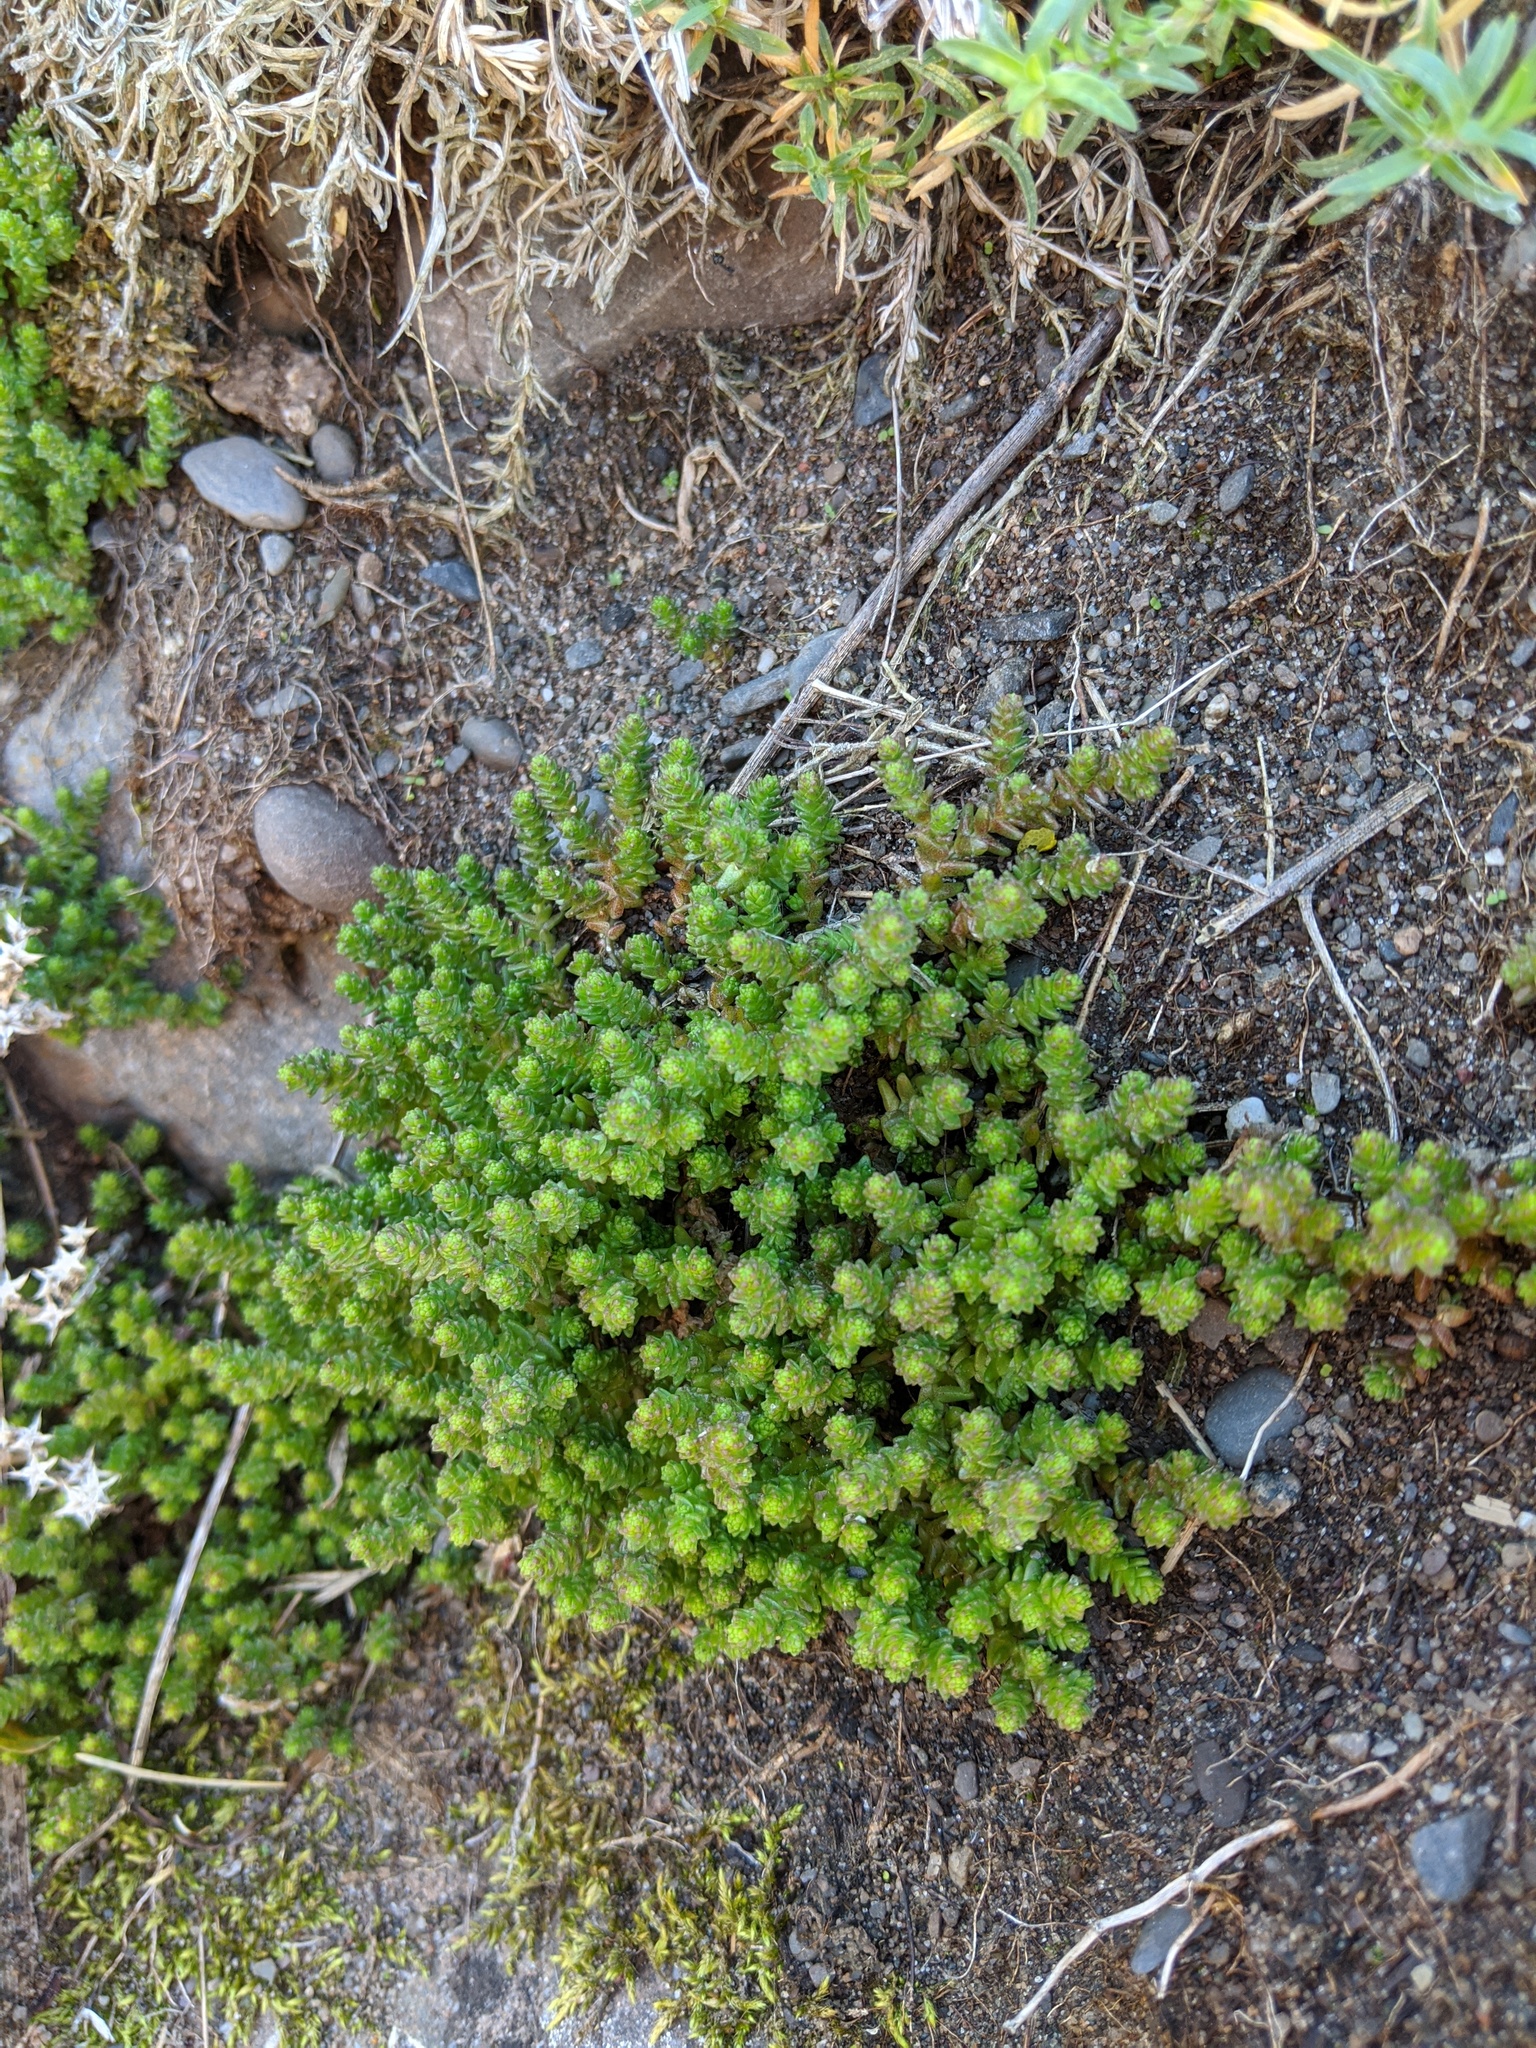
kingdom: Plantae
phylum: Tracheophyta
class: Magnoliopsida
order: Saxifragales
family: Crassulaceae
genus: Sedum
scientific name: Sedum acre
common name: Biting stonecrop
